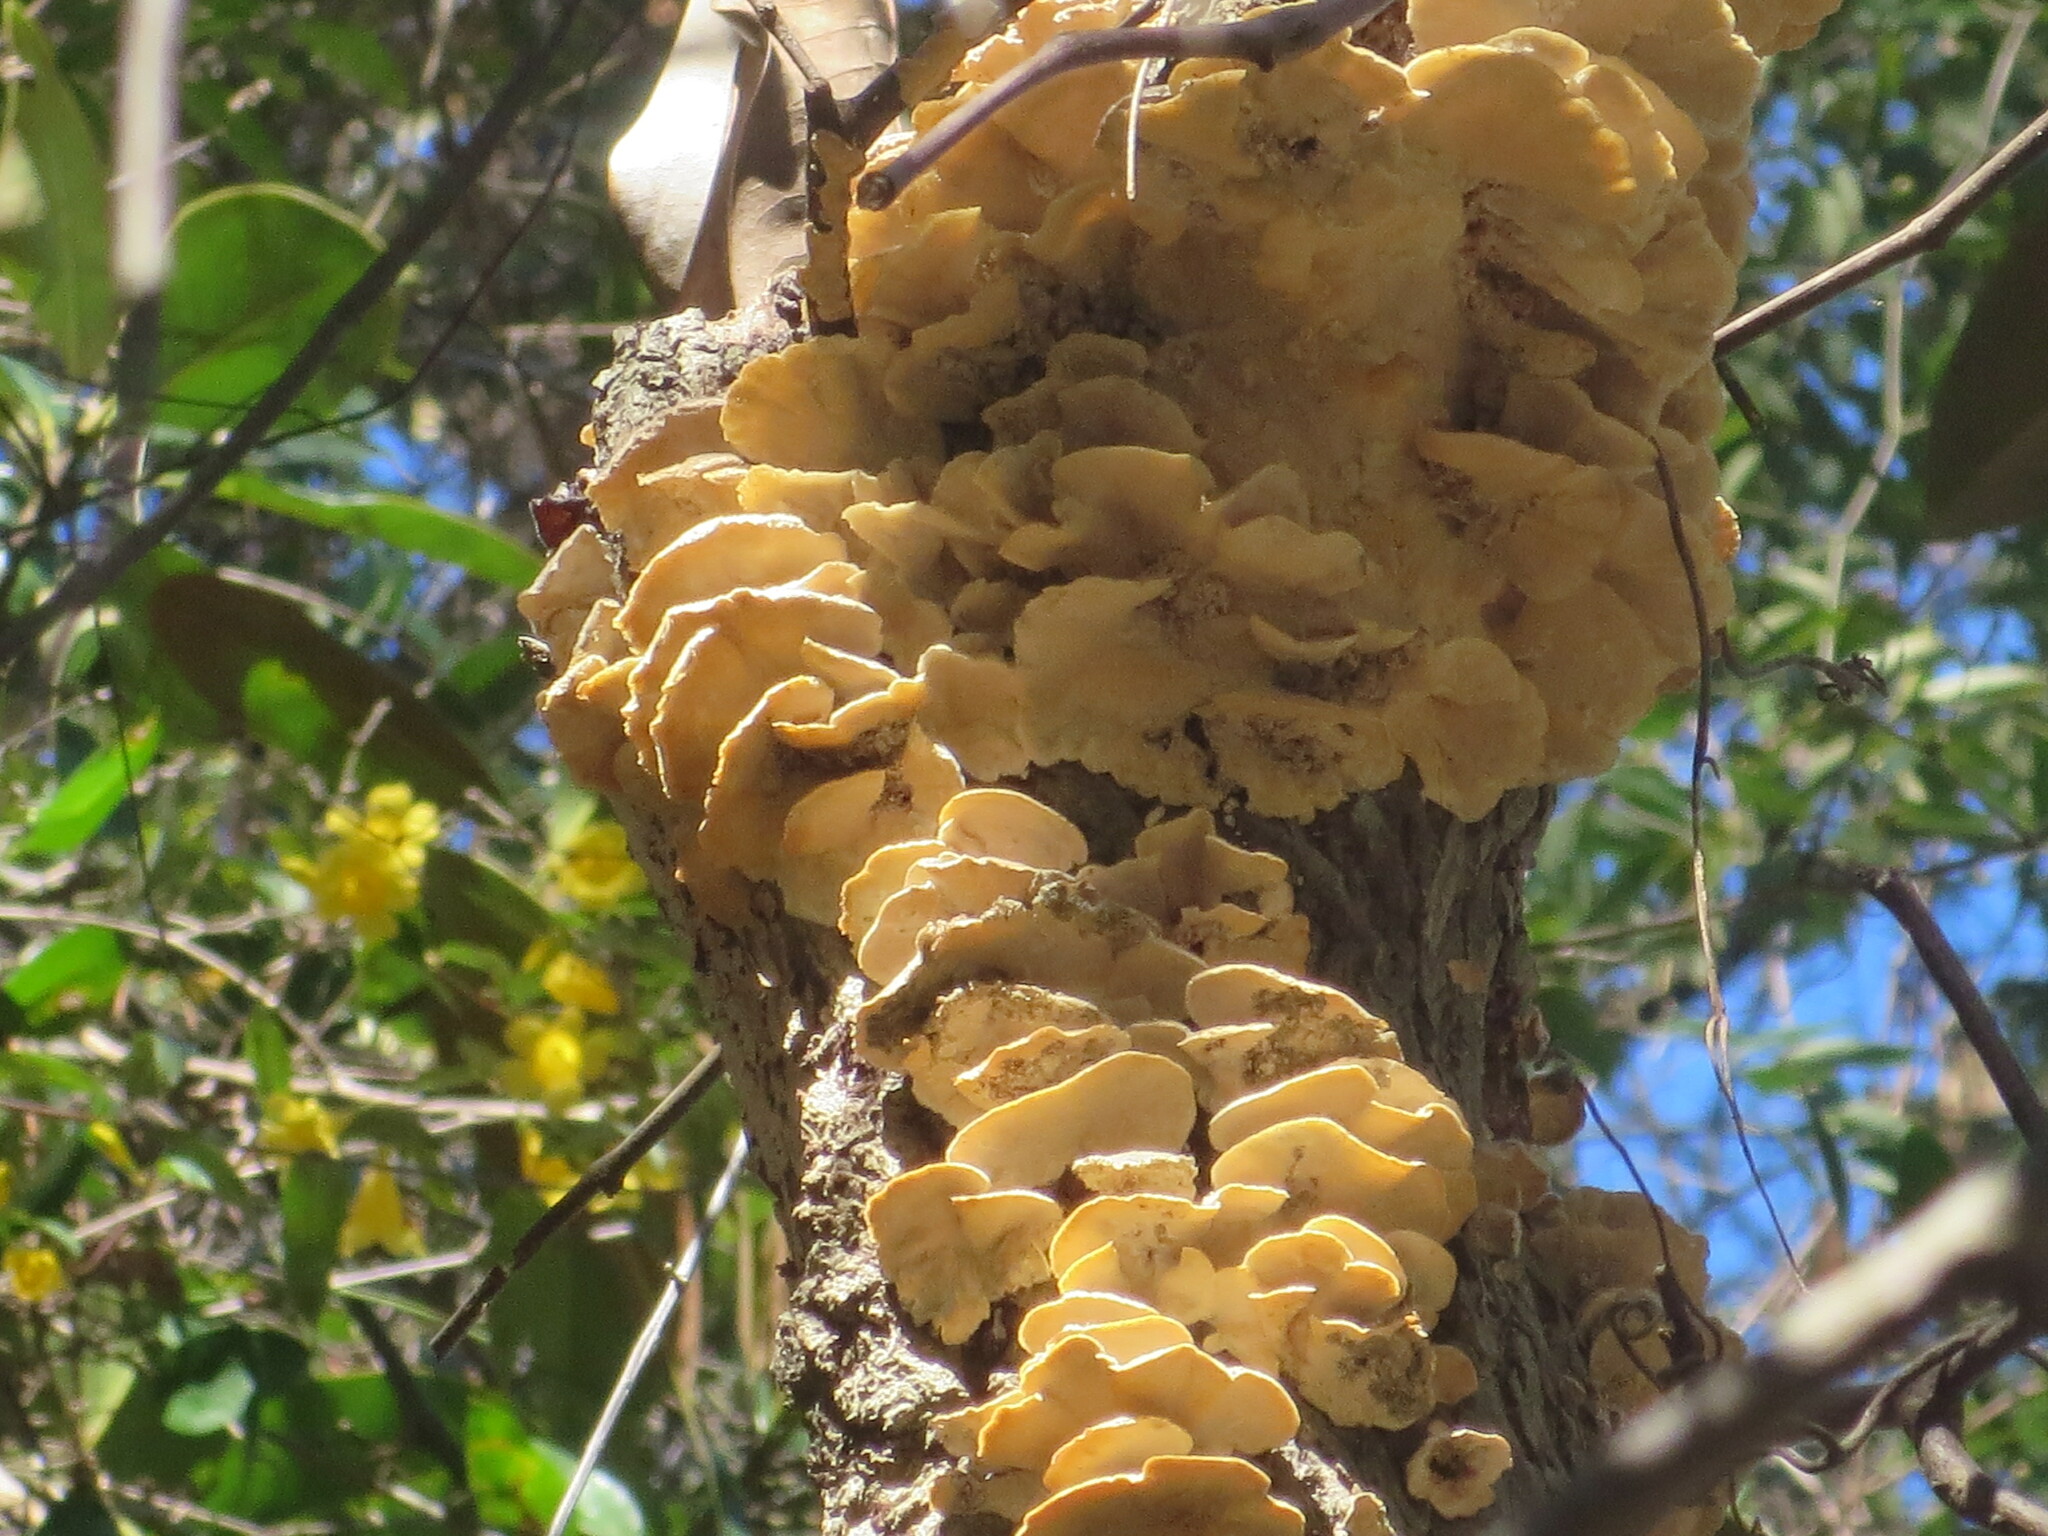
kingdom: Plantae
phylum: Tracheophyta
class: Magnoliopsida
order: Gentianales
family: Gelsemiaceae
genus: Gelsemium
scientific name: Gelsemium sempervirens
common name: Carolina-jasmine
